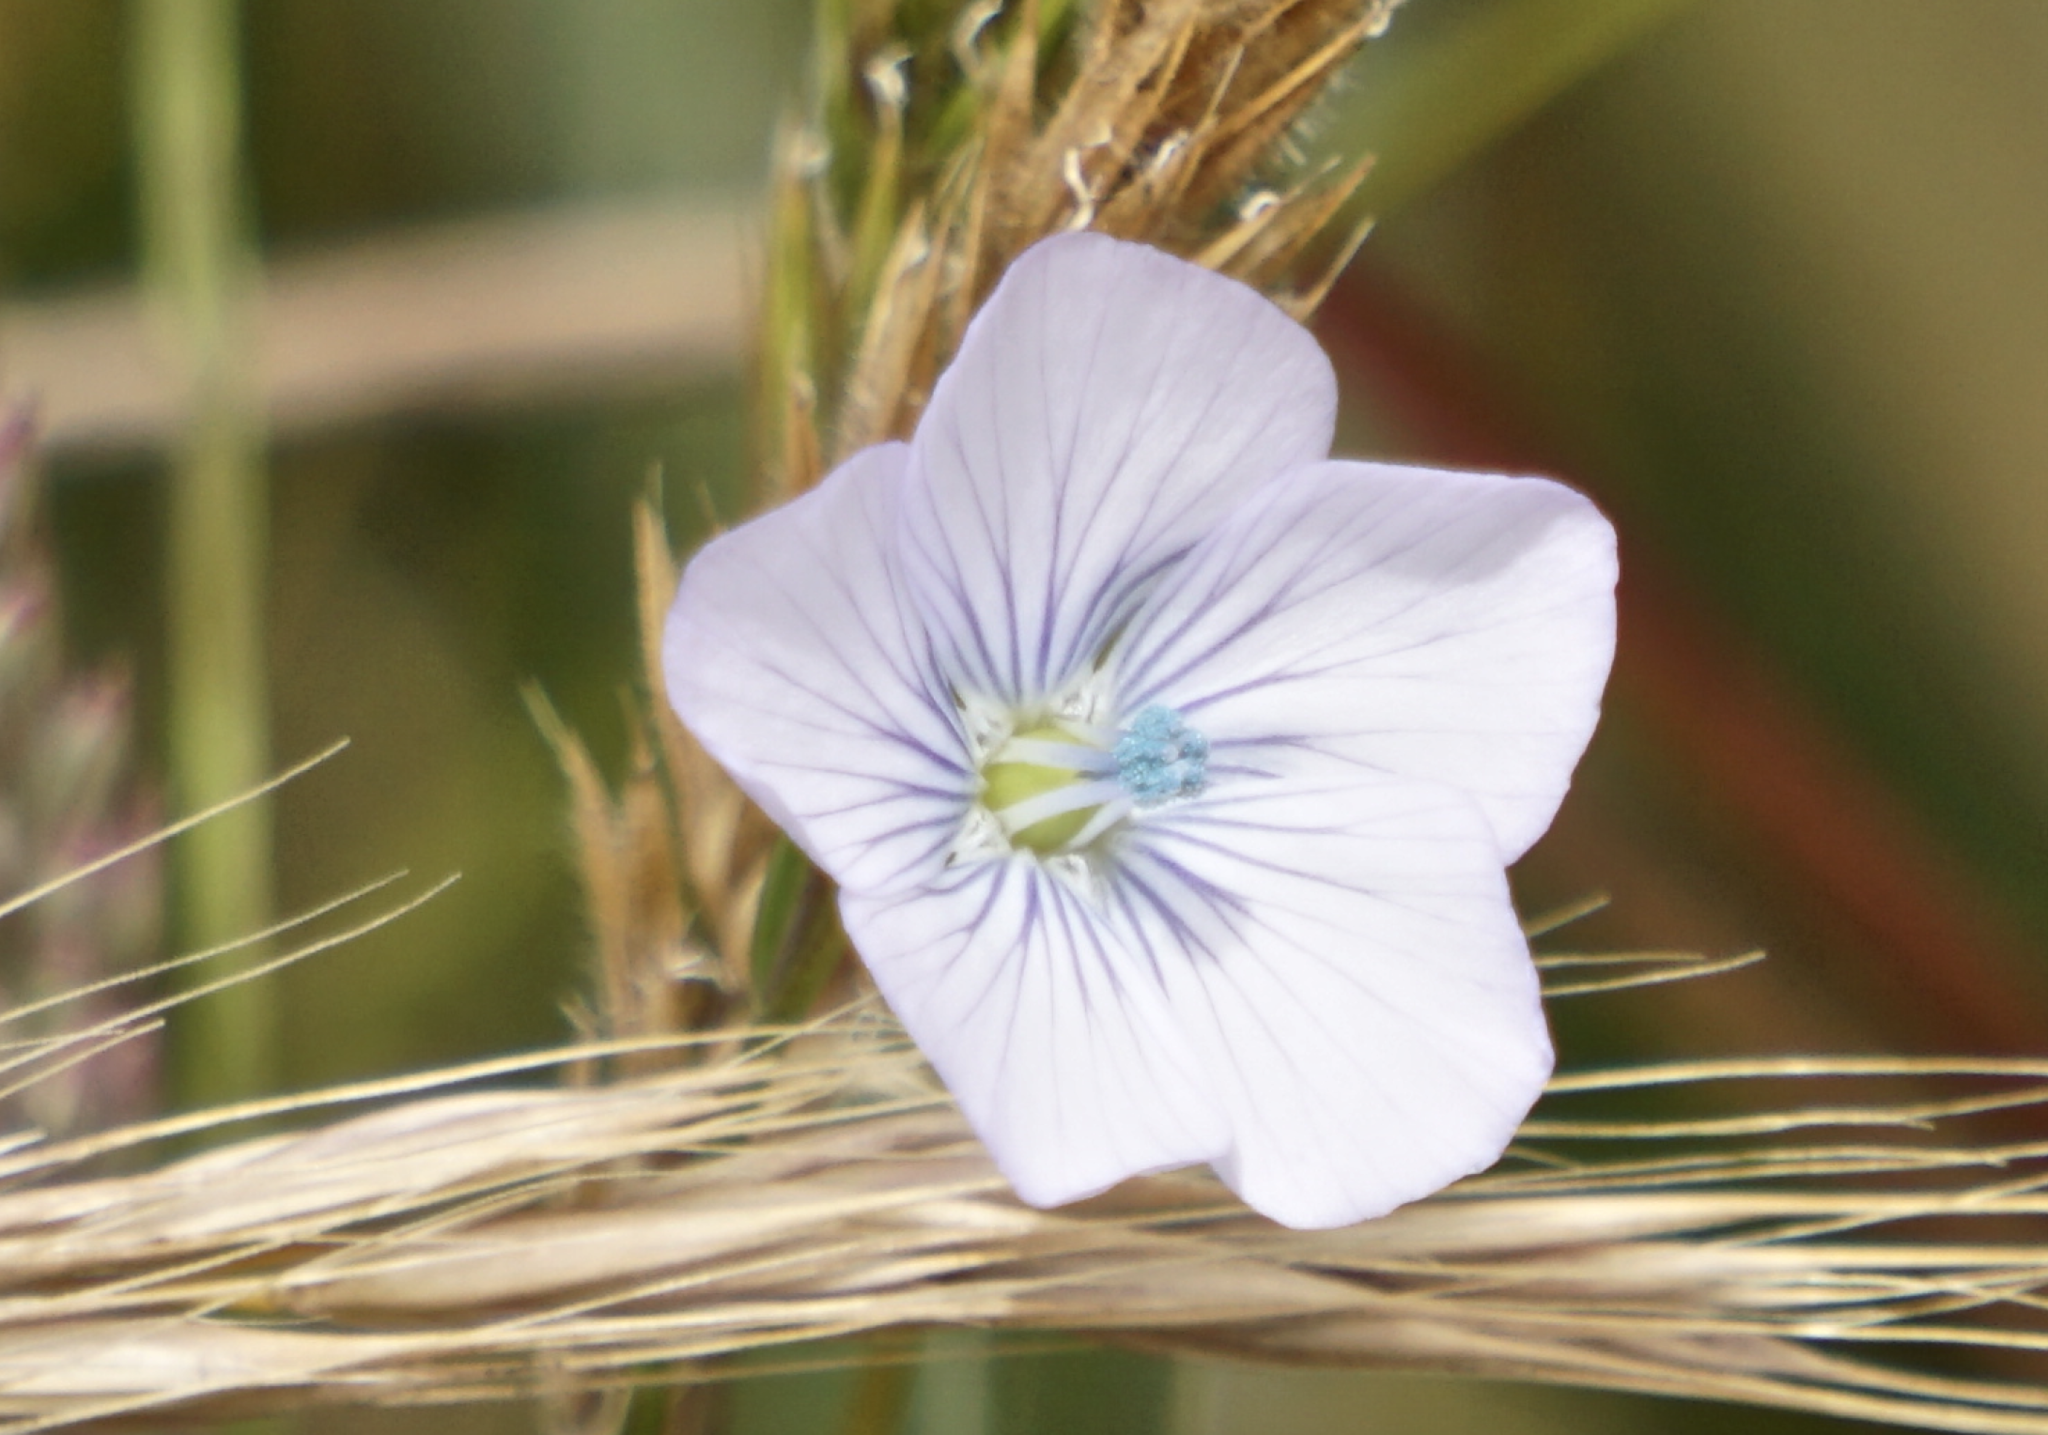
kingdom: Plantae
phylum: Tracheophyta
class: Magnoliopsida
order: Malpighiales
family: Linaceae
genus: Linum
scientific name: Linum bienne
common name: Pale flax
